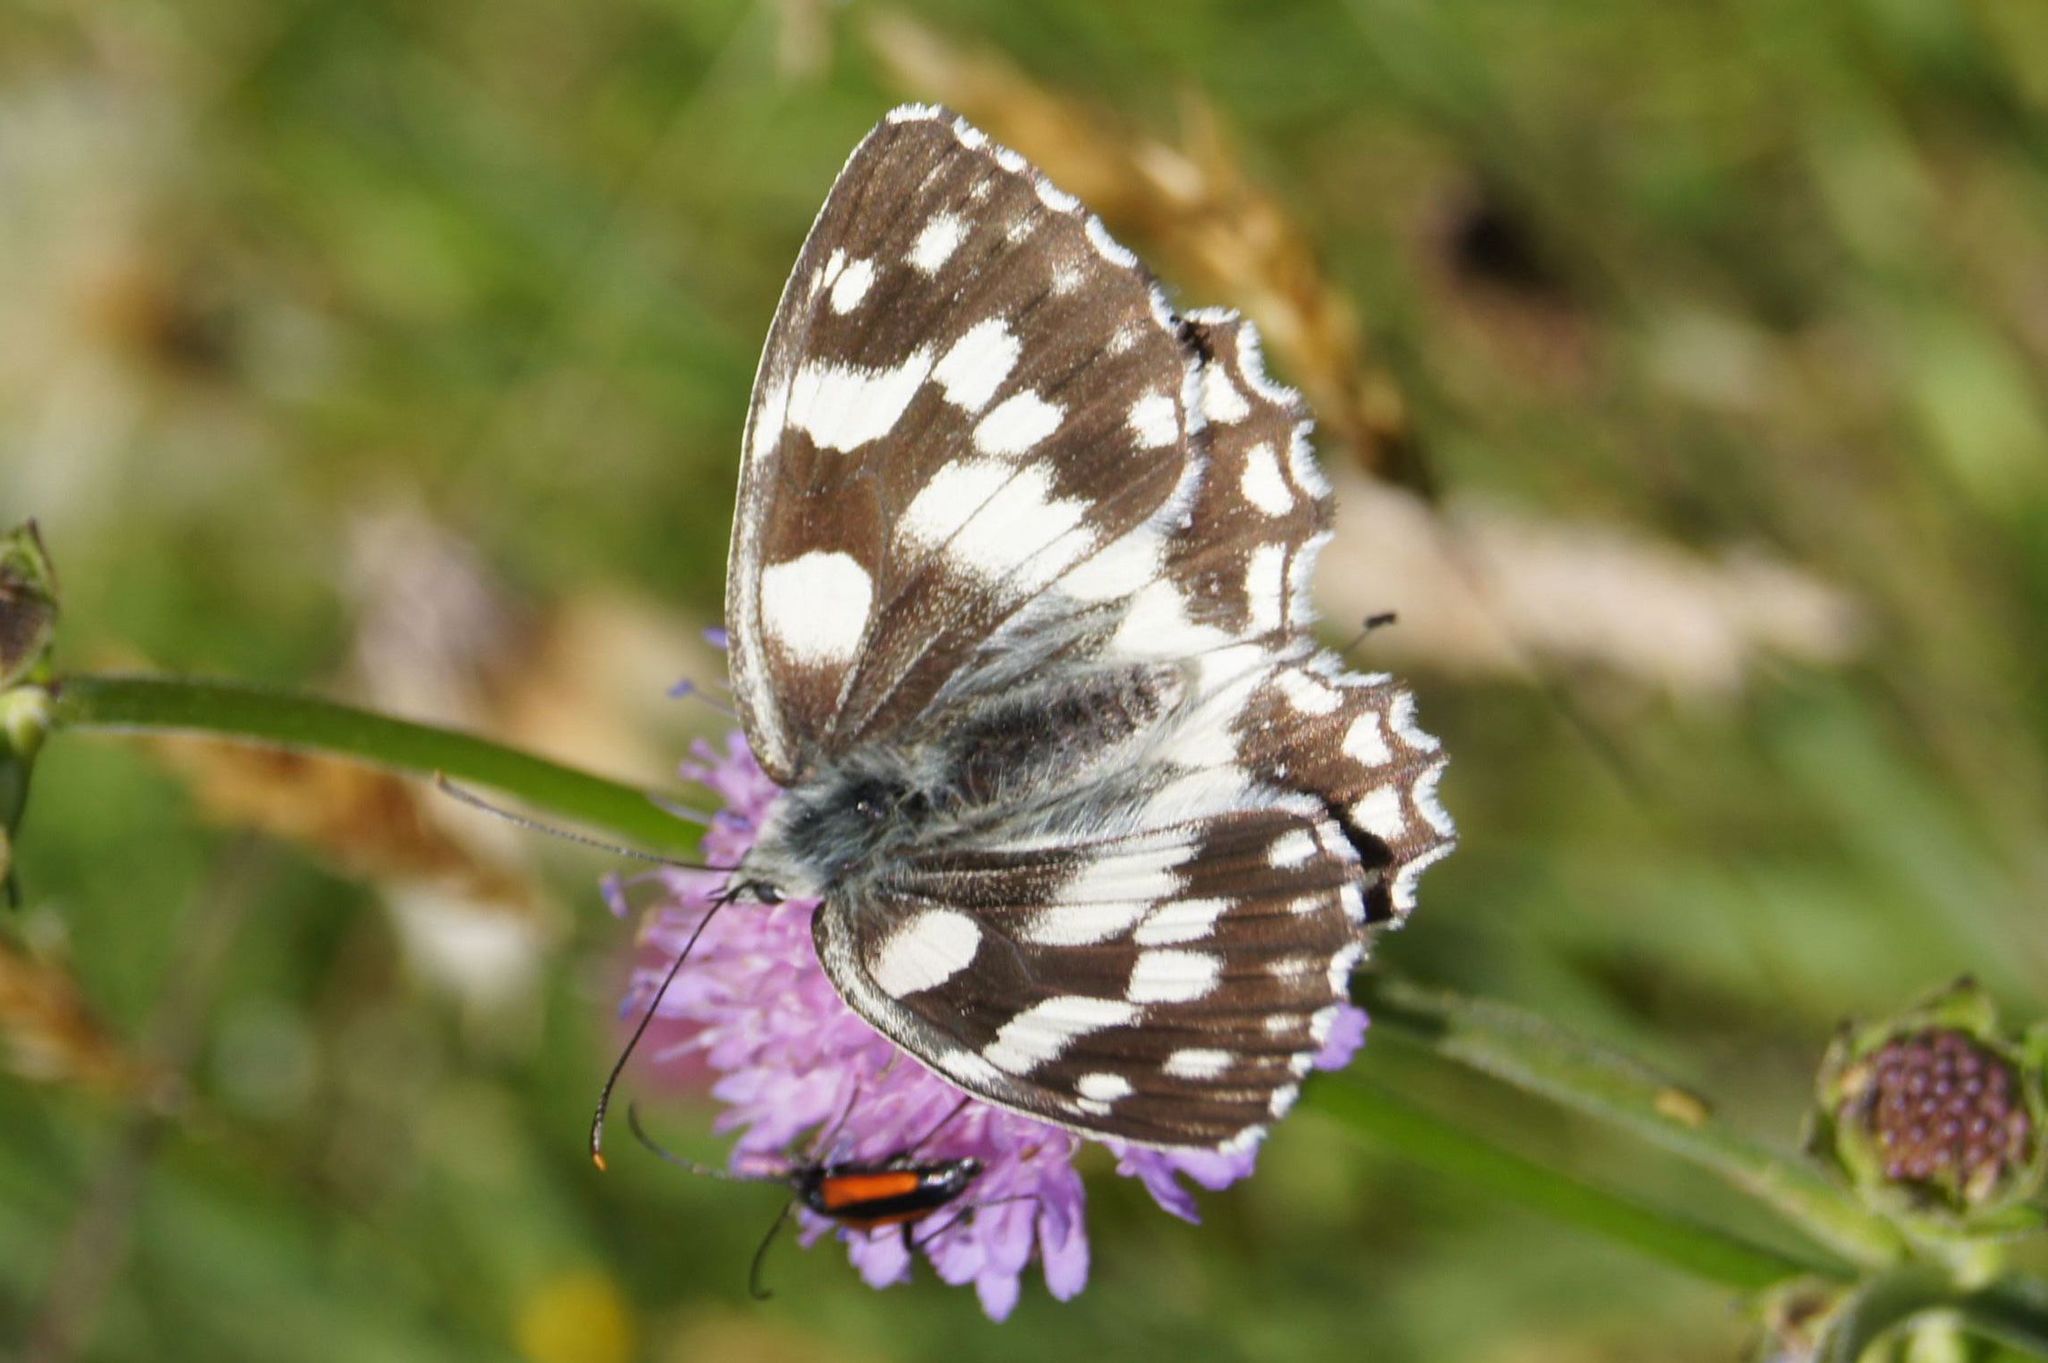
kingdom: Animalia
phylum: Arthropoda
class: Insecta
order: Lepidoptera
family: Nymphalidae
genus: Melanargia
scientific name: Melanargia galathea
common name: Marbled white
